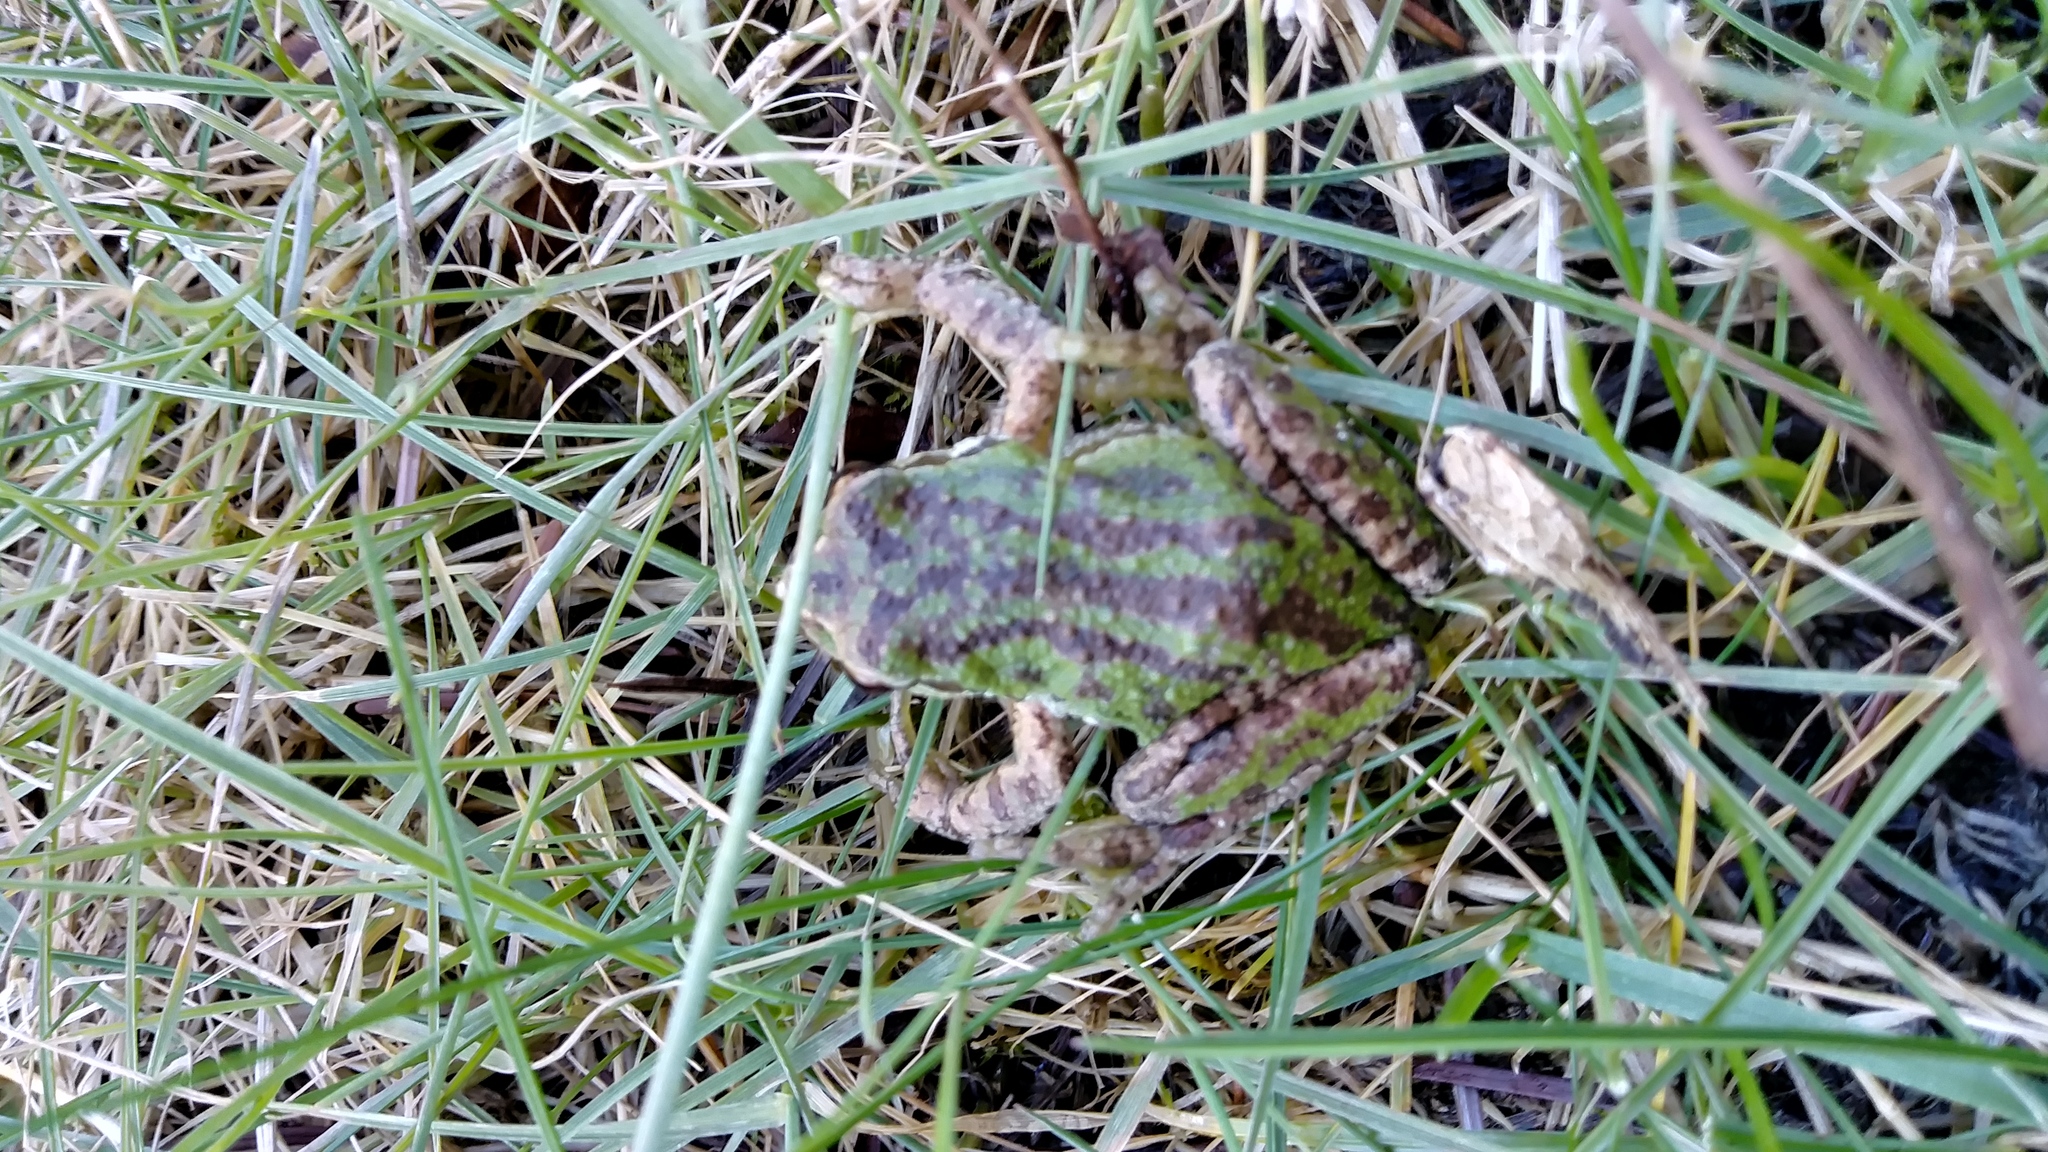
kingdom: Animalia
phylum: Chordata
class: Amphibia
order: Anura
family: Hylidae
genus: Pseudacris
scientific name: Pseudacris regilla
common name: Pacific chorus frog
